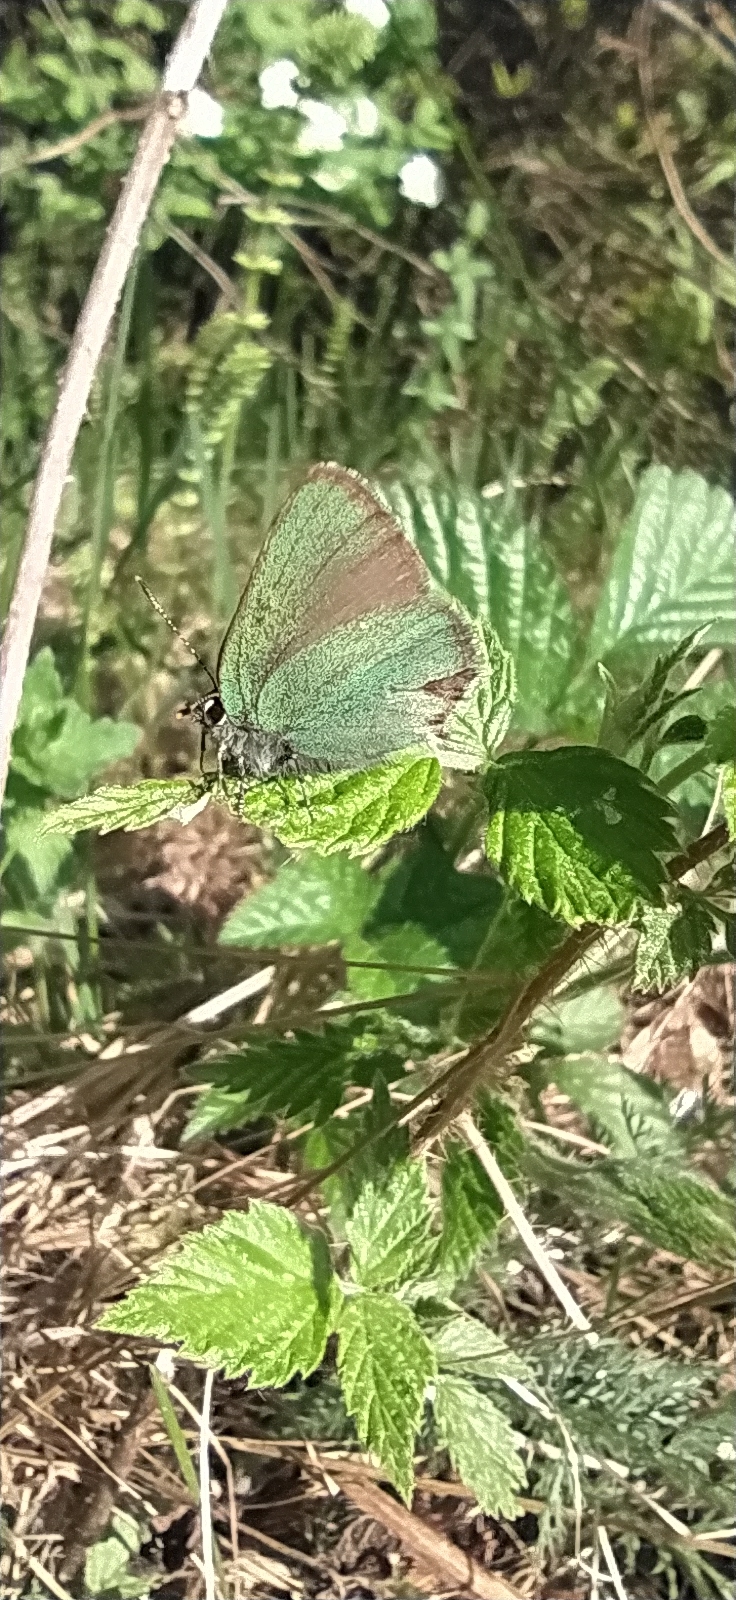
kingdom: Animalia
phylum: Arthropoda
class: Insecta
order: Lepidoptera
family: Lycaenidae
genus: Callophrys
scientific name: Callophrys rubi
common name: Green hairstreak
